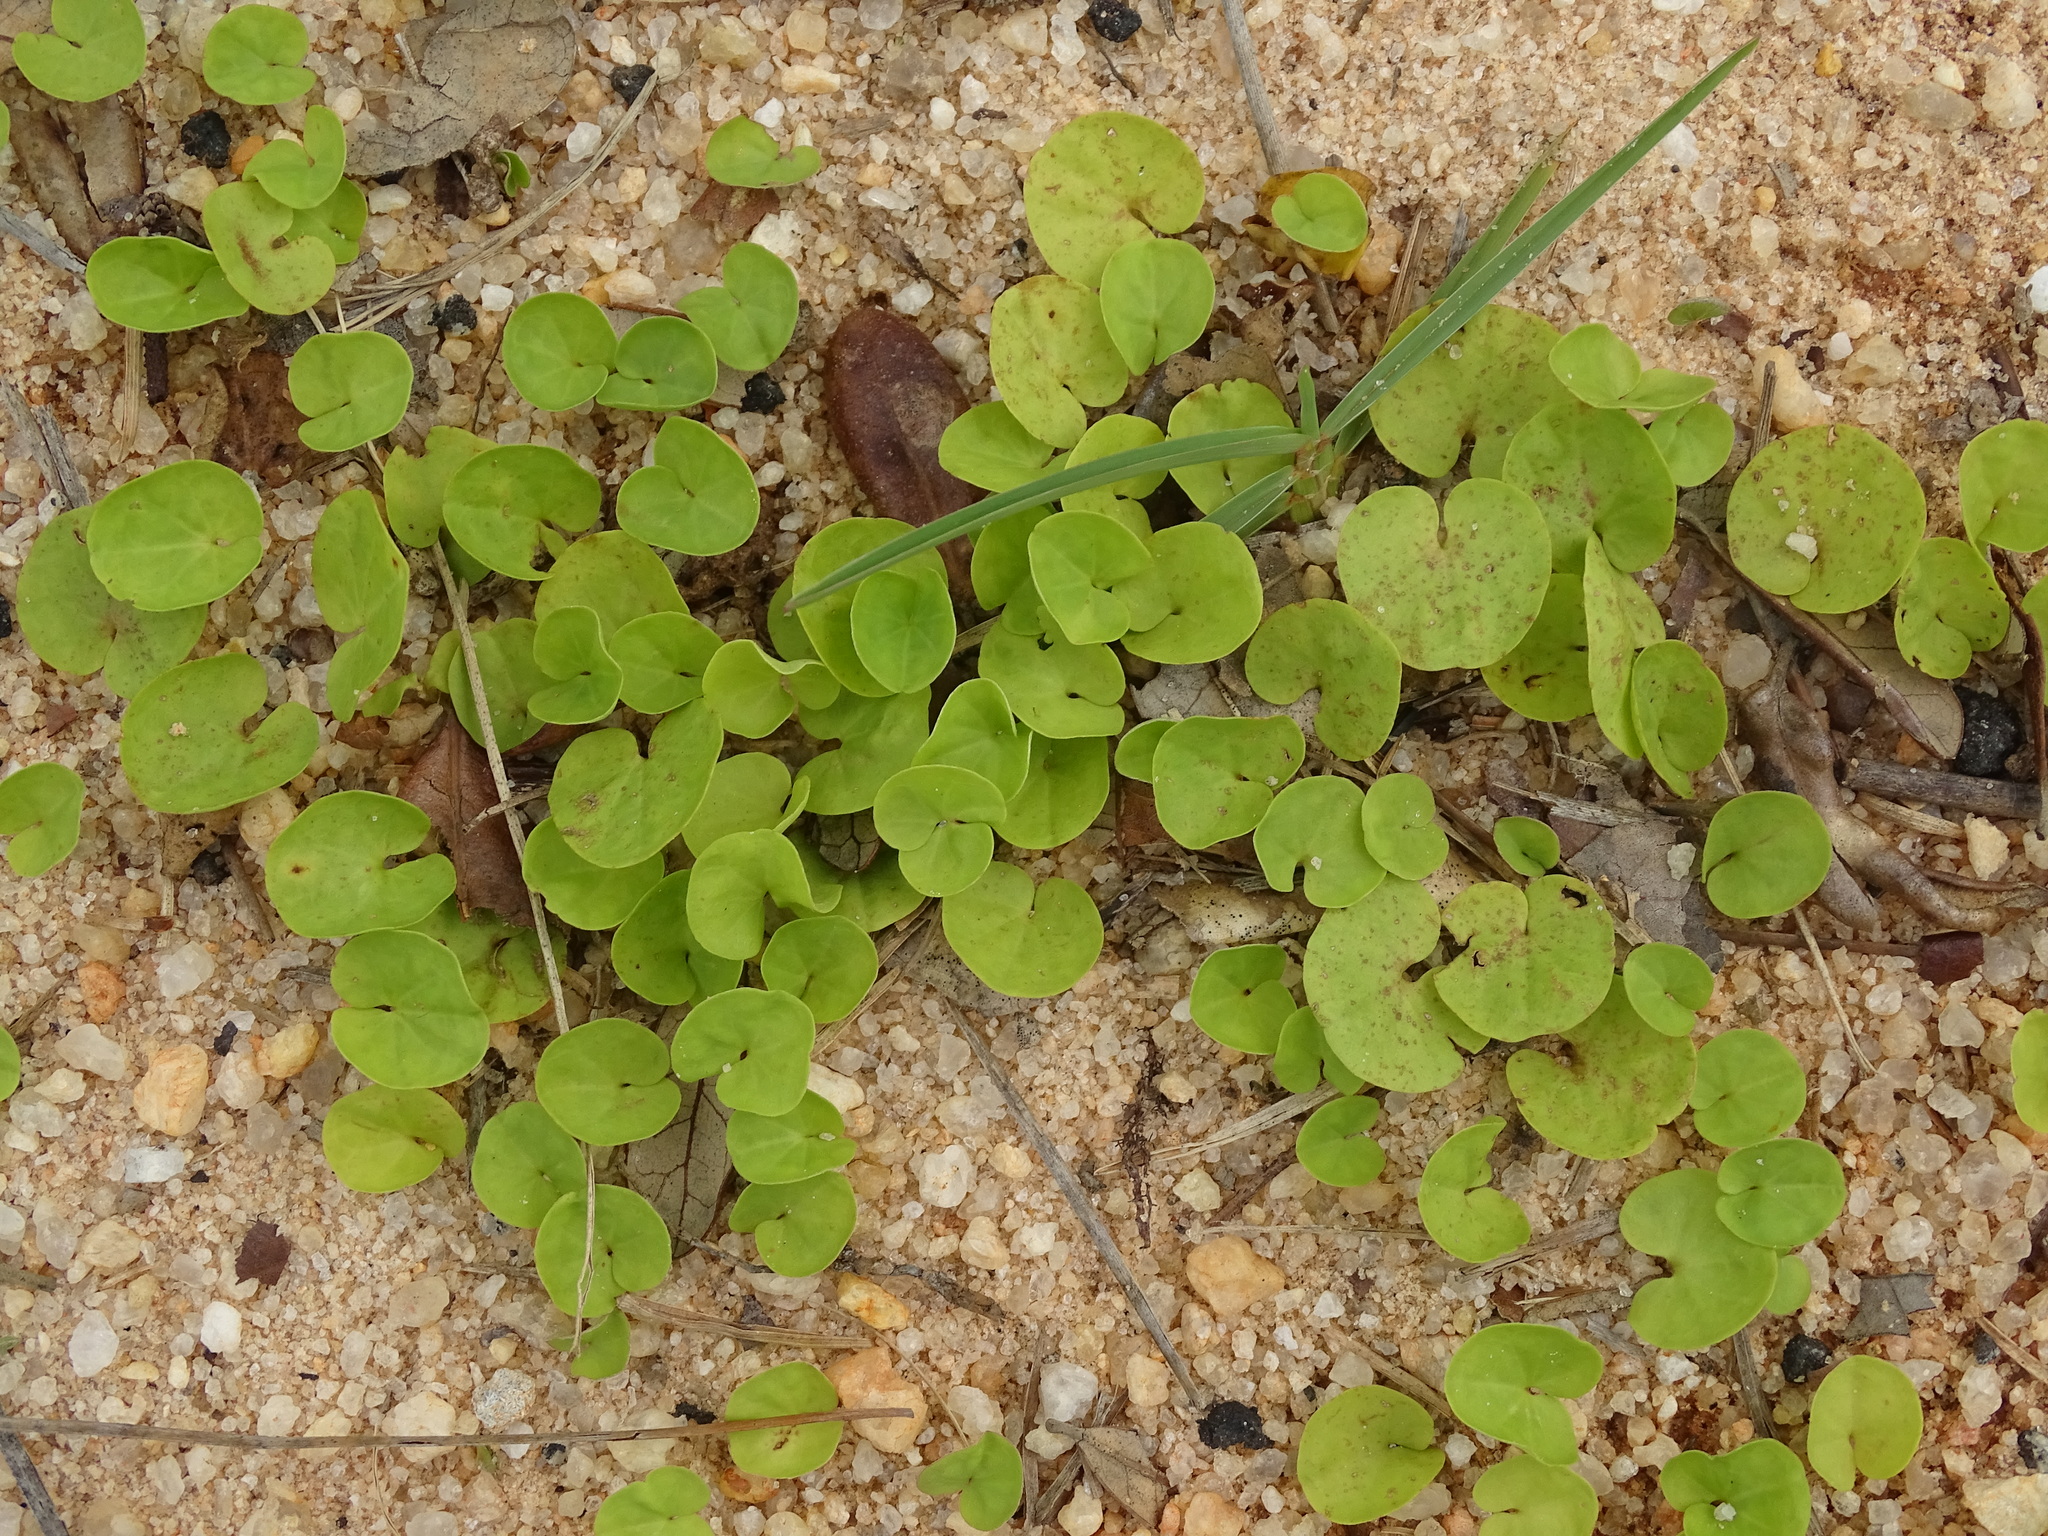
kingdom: Plantae
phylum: Tracheophyta
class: Magnoliopsida
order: Solanales
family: Convolvulaceae
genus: Dichondra
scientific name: Dichondra carolinensis
